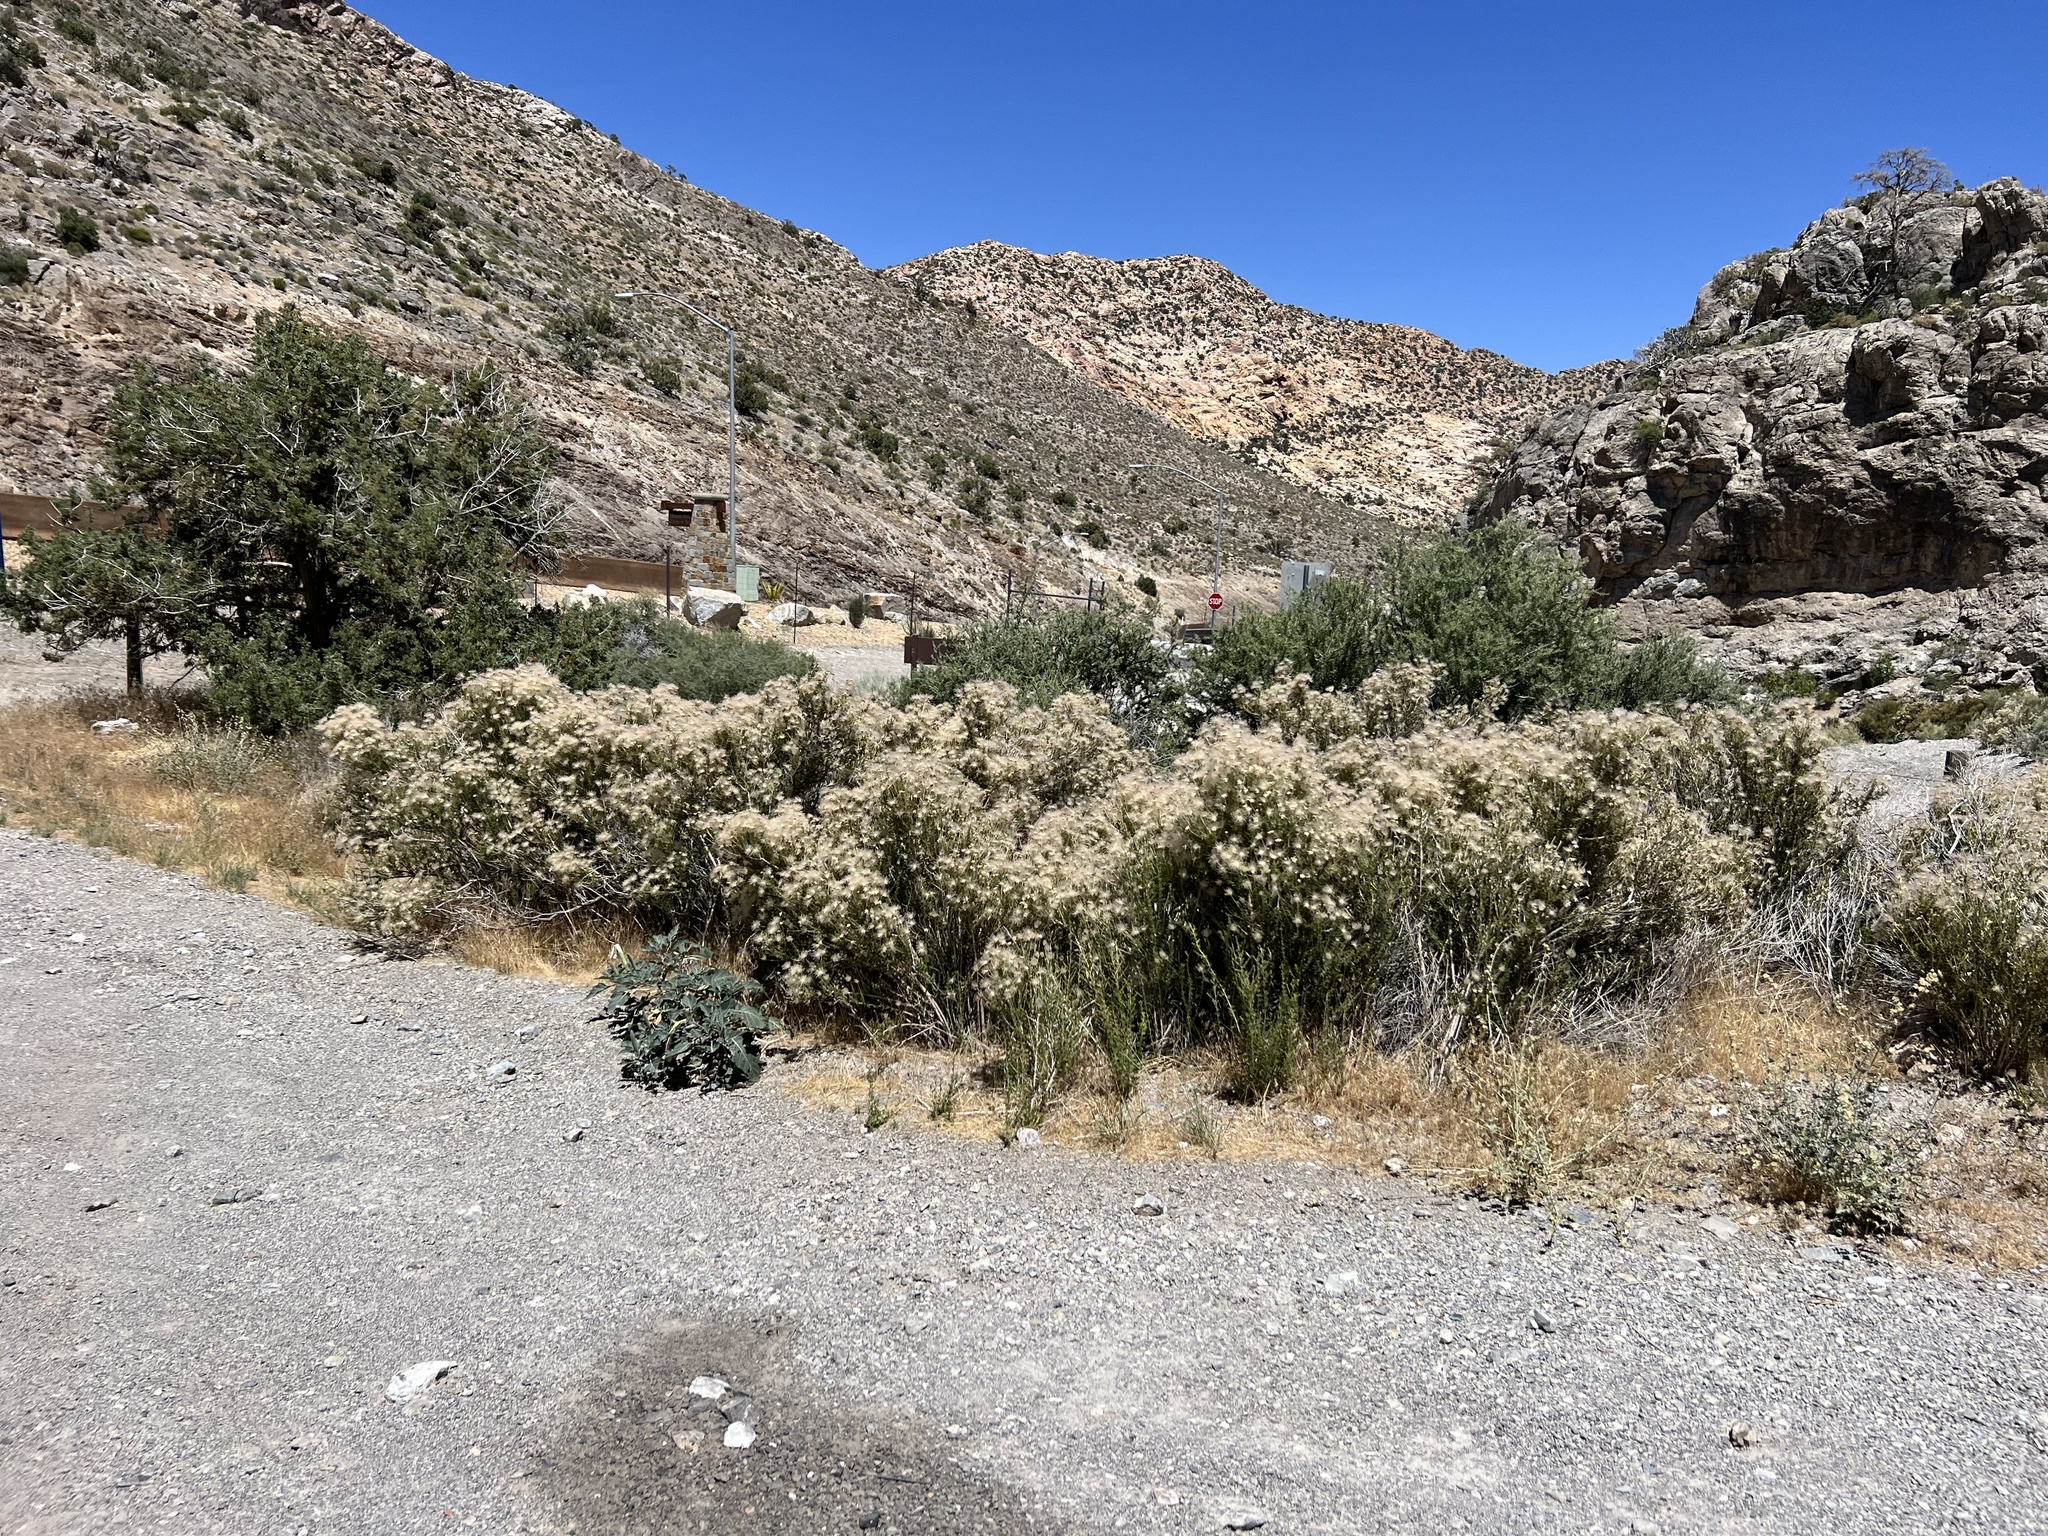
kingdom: Plantae
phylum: Tracheophyta
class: Magnoliopsida
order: Rosales
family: Rosaceae
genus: Fallugia
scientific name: Fallugia paradoxa
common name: Apache-plume
